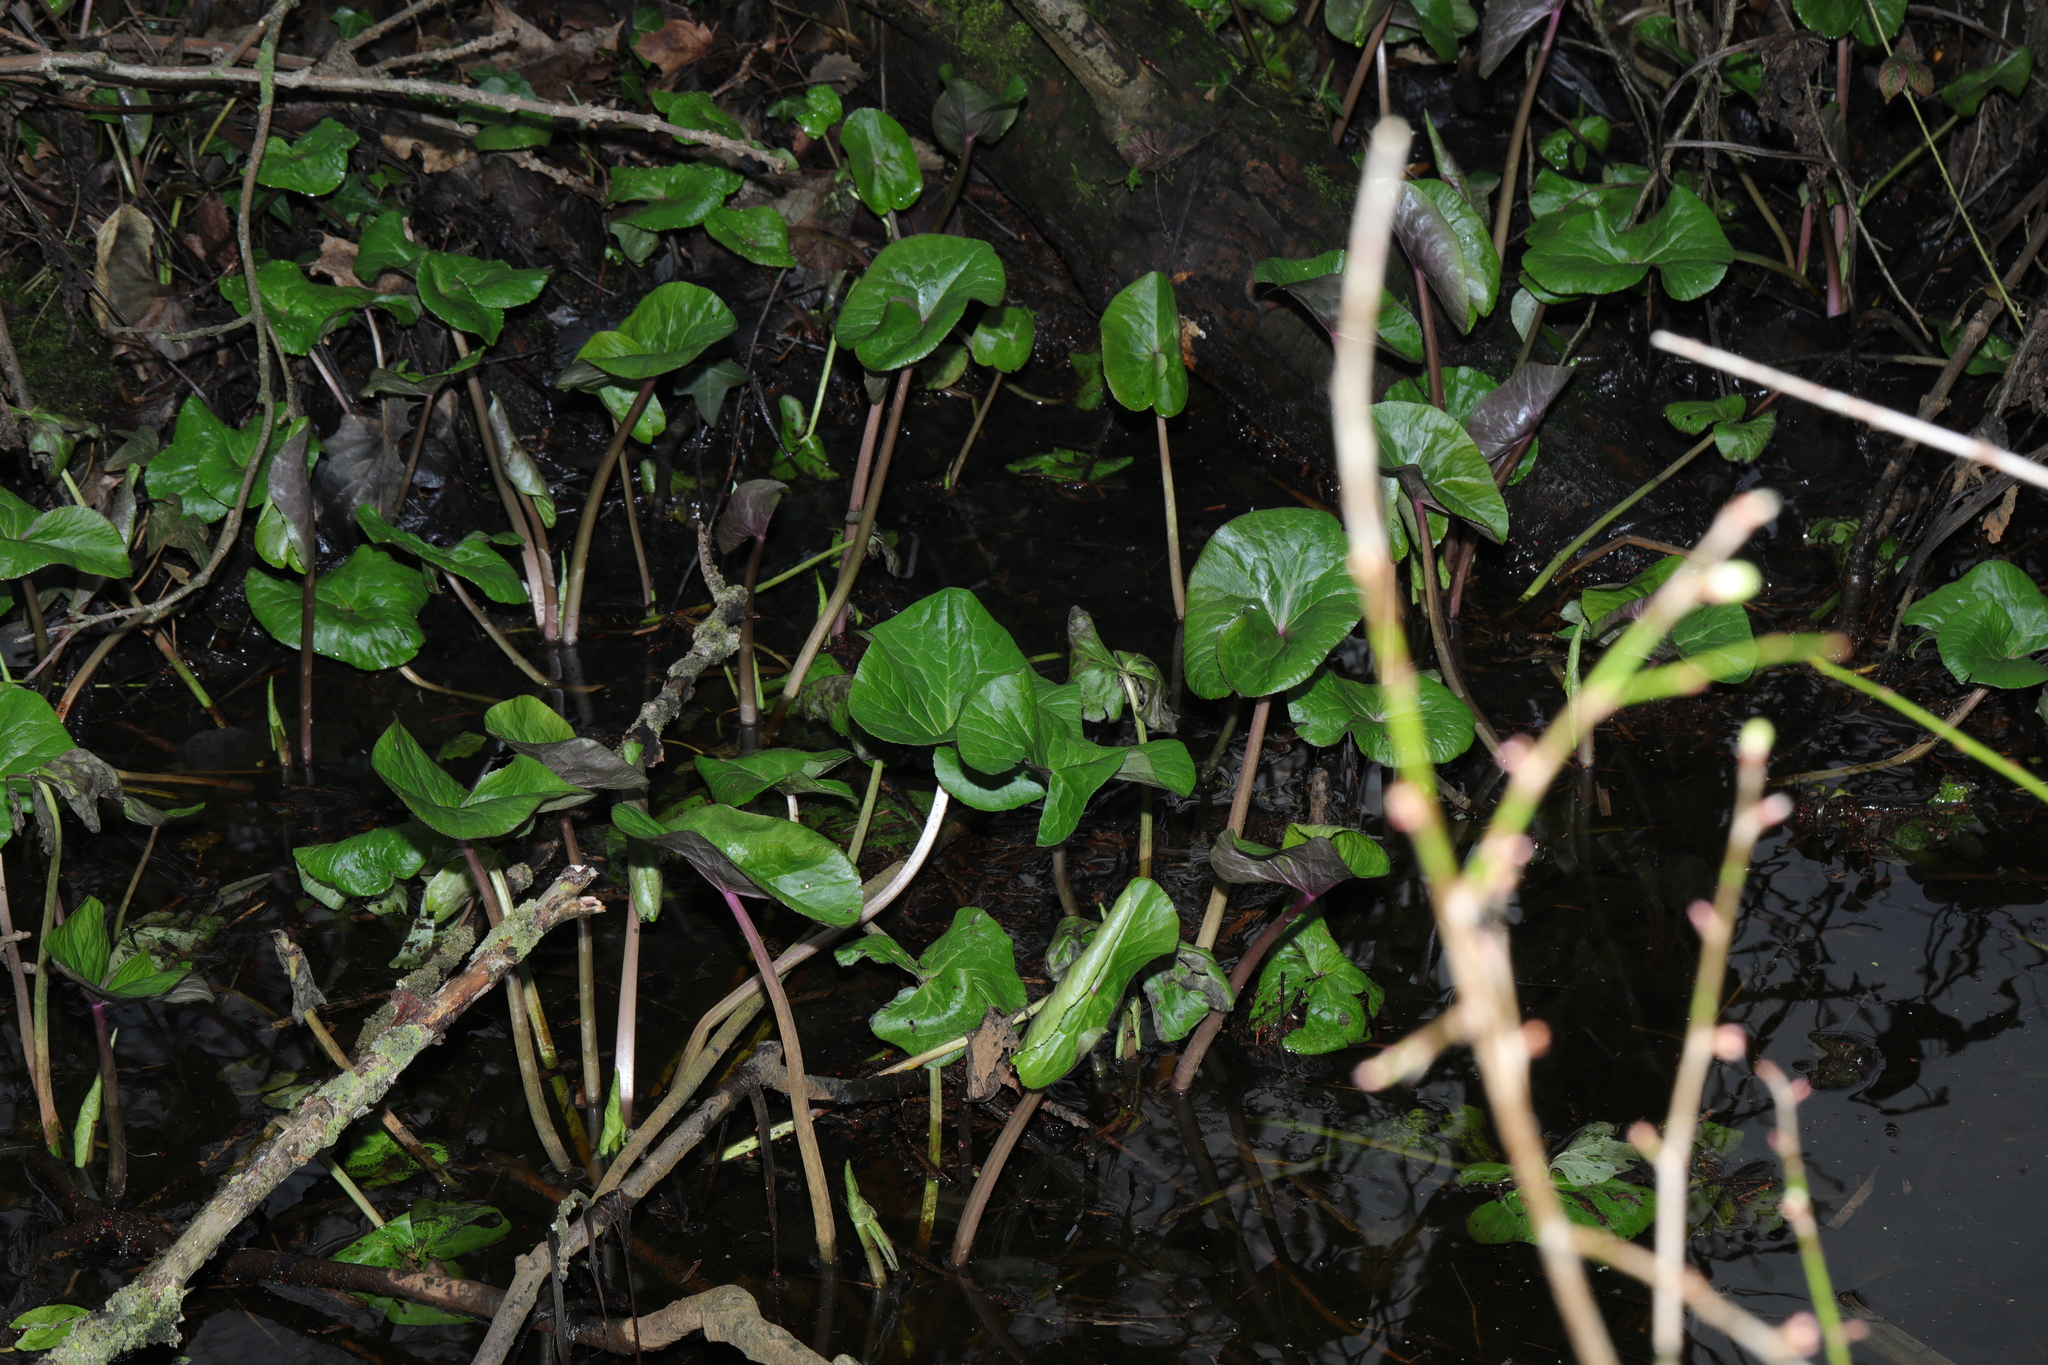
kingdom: Plantae
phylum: Tracheophyta
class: Magnoliopsida
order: Ranunculales
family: Ranunculaceae
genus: Caltha
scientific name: Caltha palustris
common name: Marsh marigold
